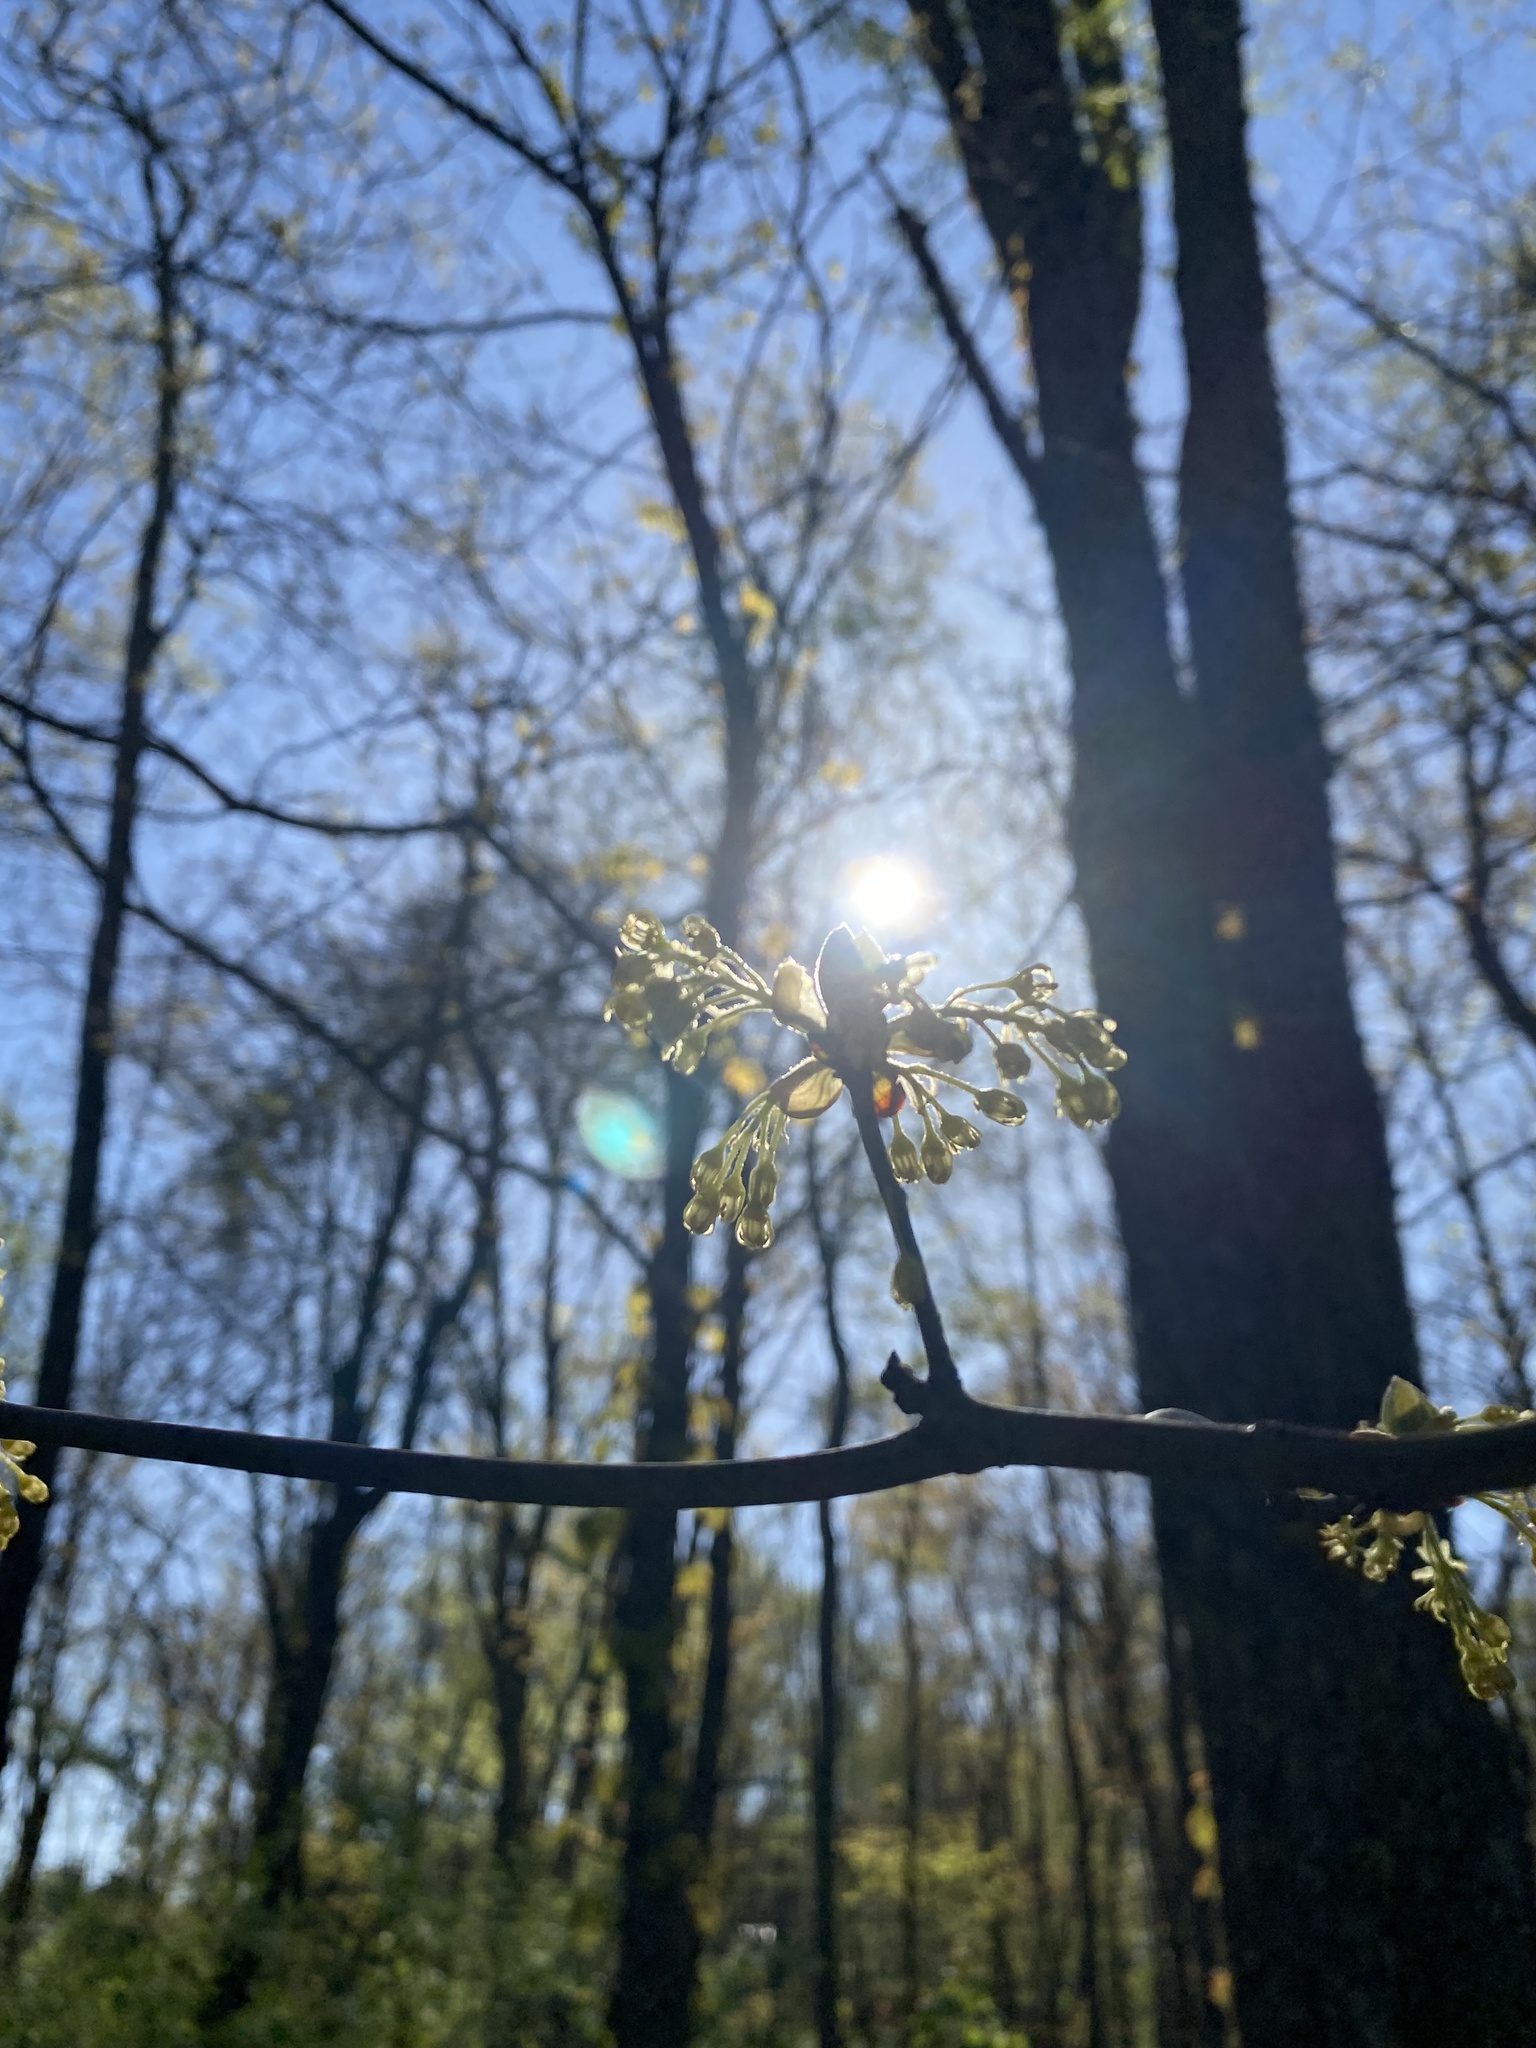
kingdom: Plantae
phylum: Tracheophyta
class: Magnoliopsida
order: Laurales
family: Lauraceae
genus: Sassafras
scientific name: Sassafras albidum
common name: Sassafras
